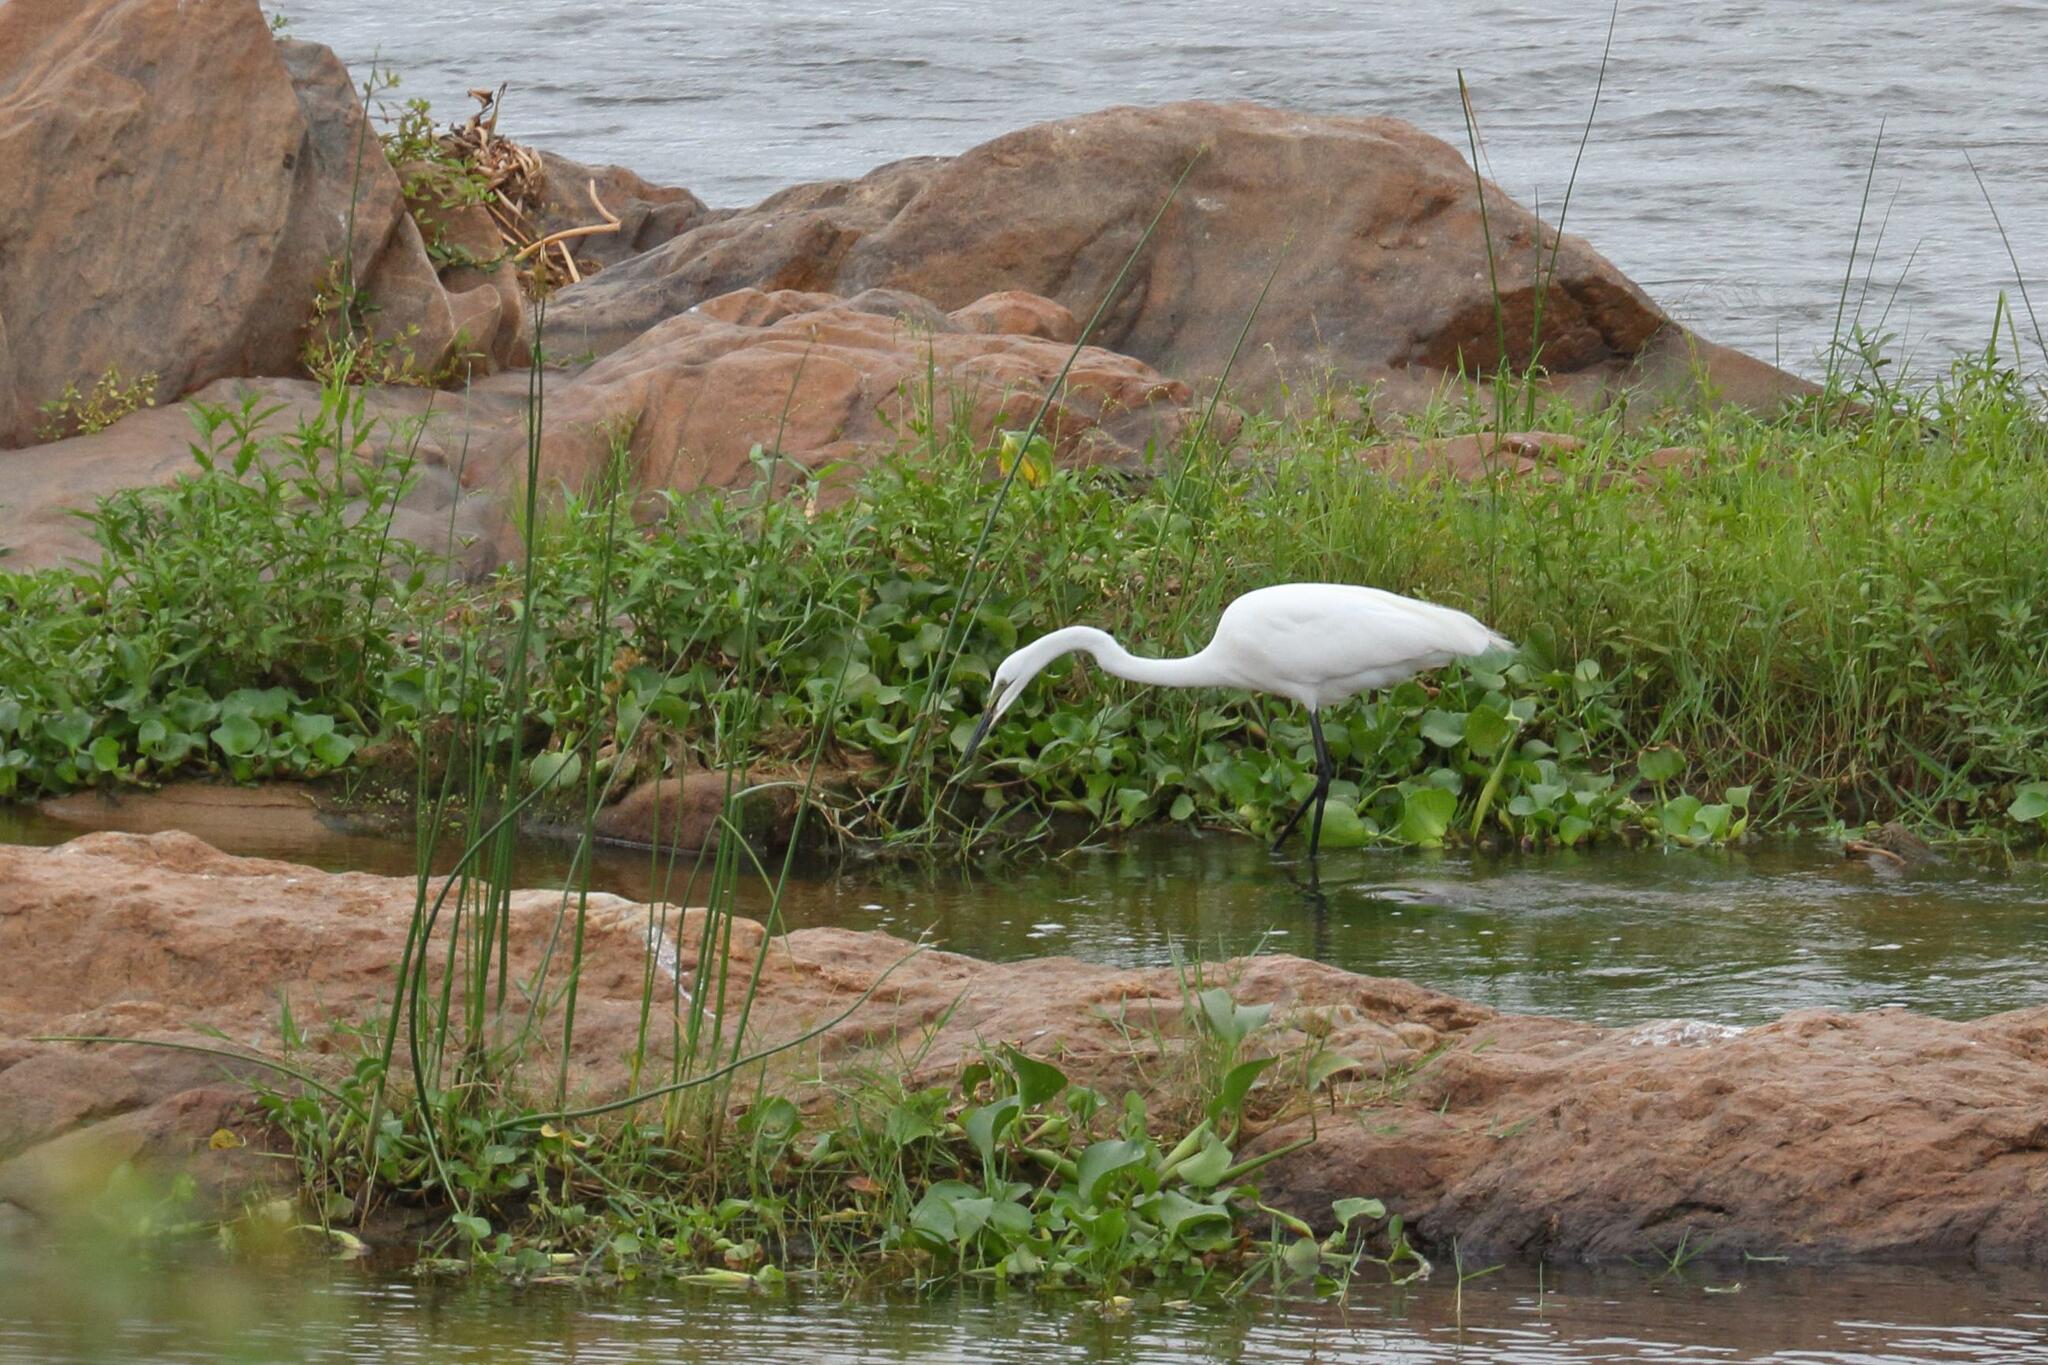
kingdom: Animalia
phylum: Chordata
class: Aves
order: Pelecaniformes
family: Ardeidae
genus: Ardea
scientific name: Ardea alba
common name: Great egret
